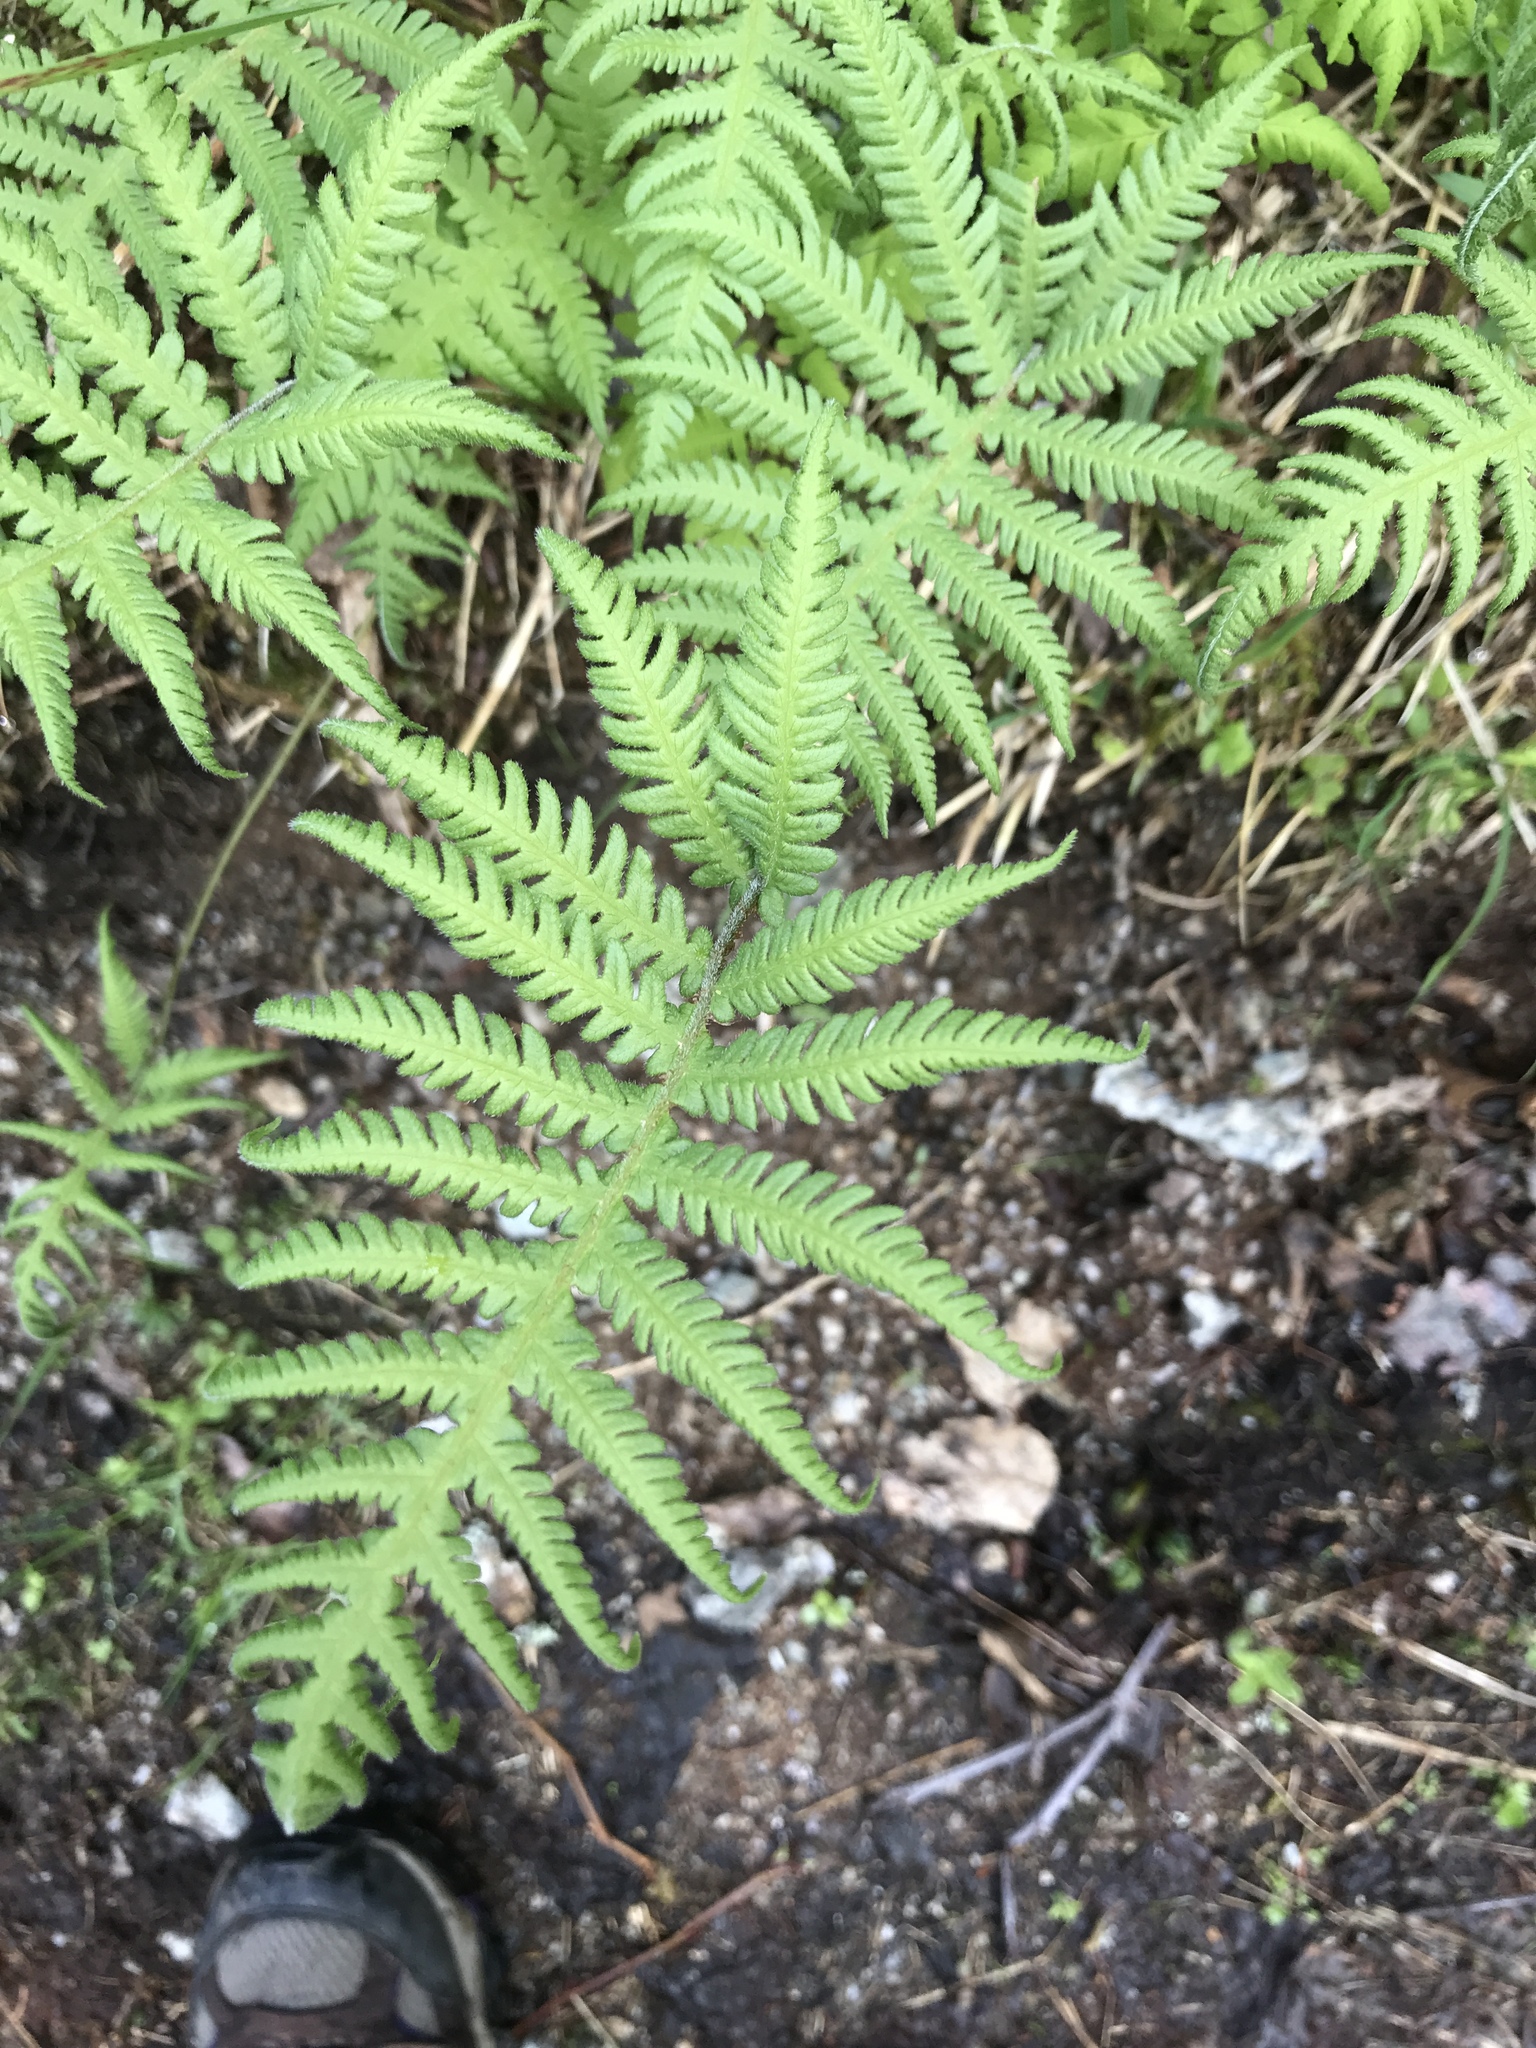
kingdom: Plantae
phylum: Tracheophyta
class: Polypodiopsida
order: Polypodiales
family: Thelypteridaceae
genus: Phegopteris
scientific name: Phegopteris connectilis
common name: Beech fern
